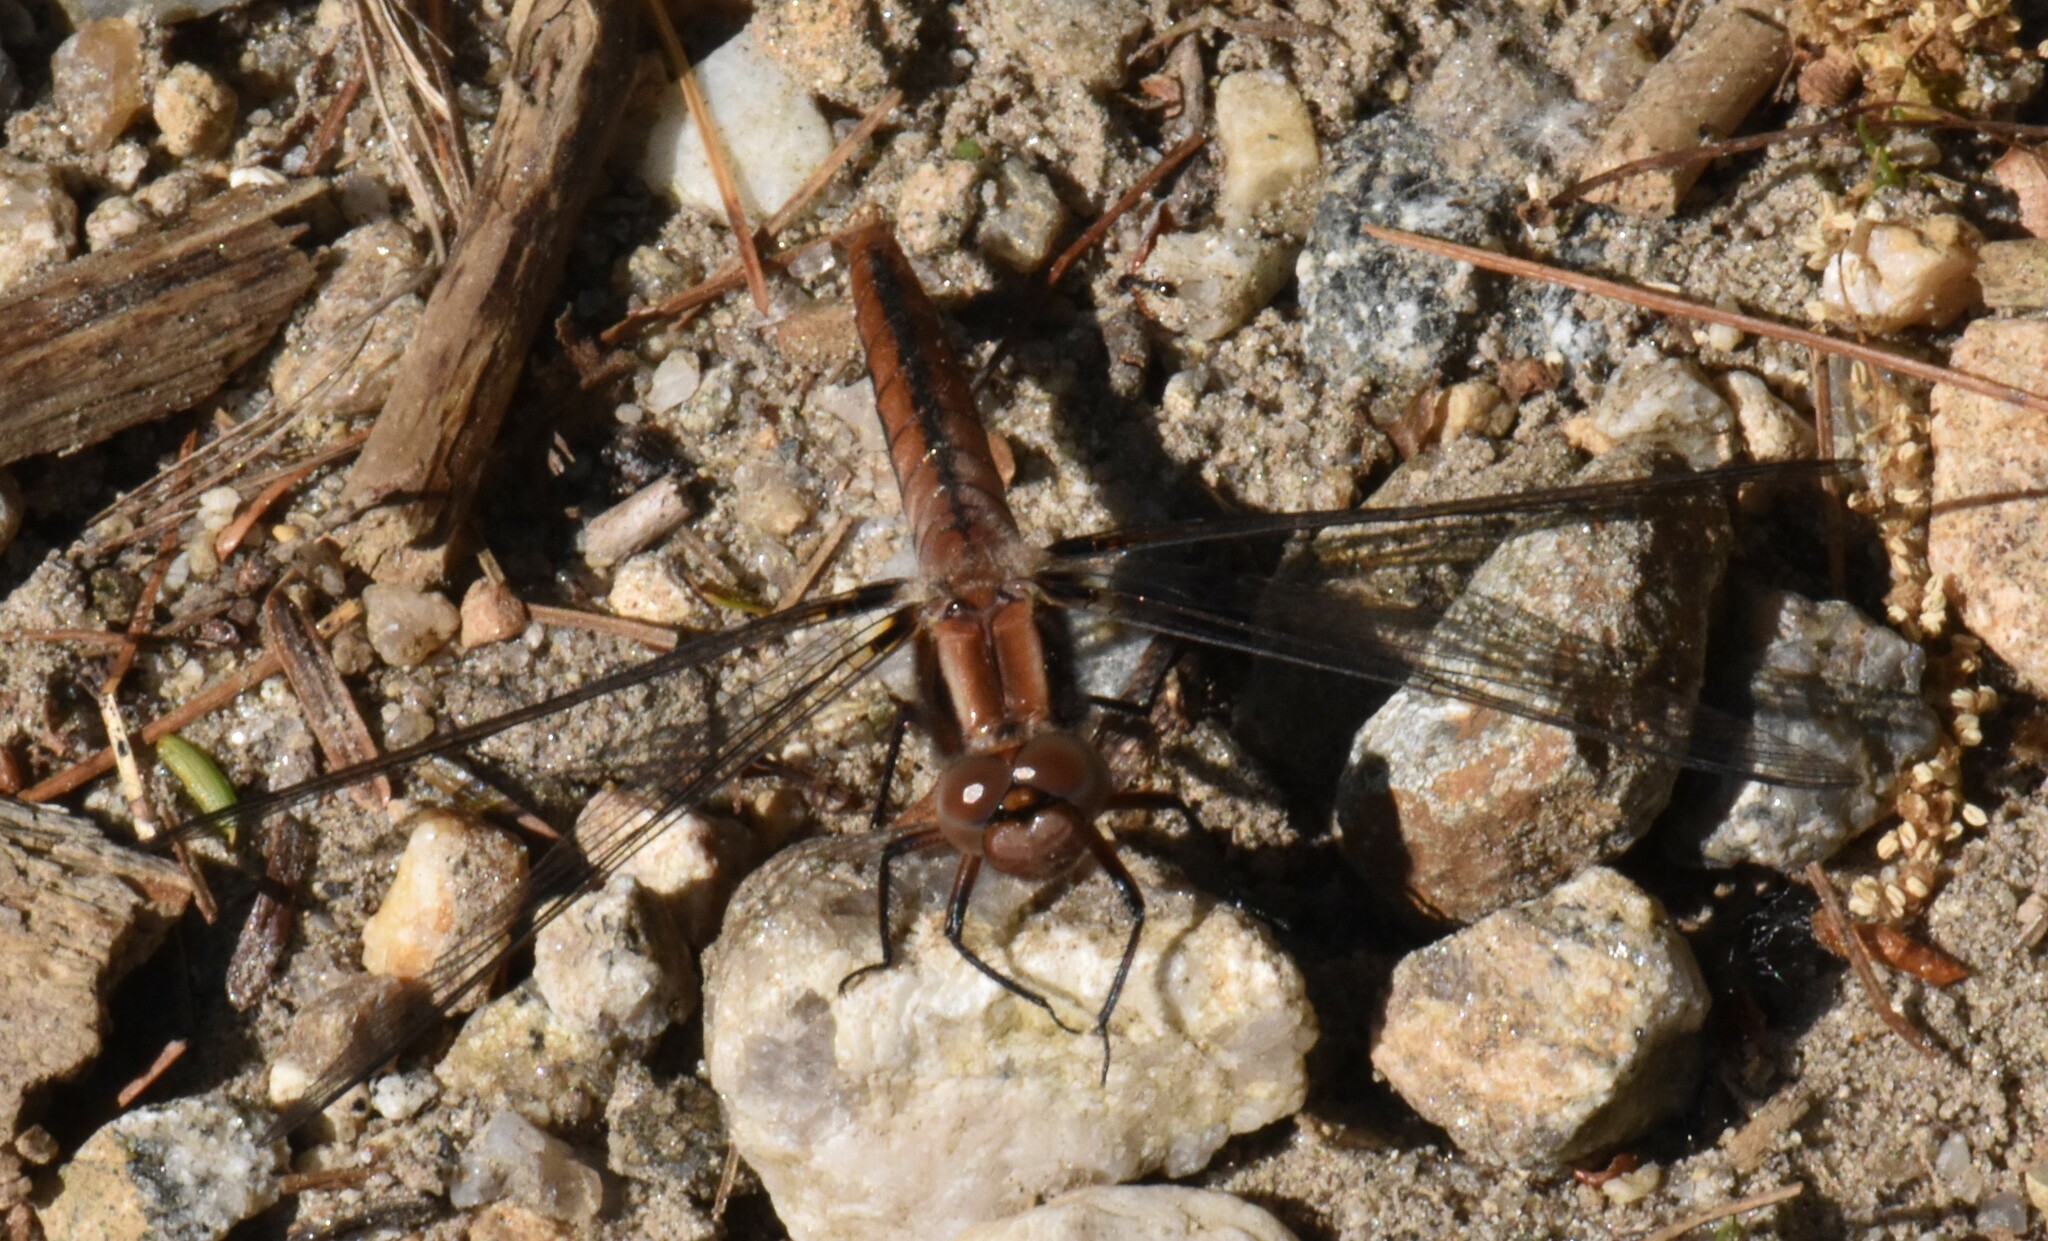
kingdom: Animalia
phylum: Arthropoda
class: Insecta
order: Odonata
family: Libellulidae
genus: Ladona
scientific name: Ladona julia
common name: Chalk-fronted corporal
